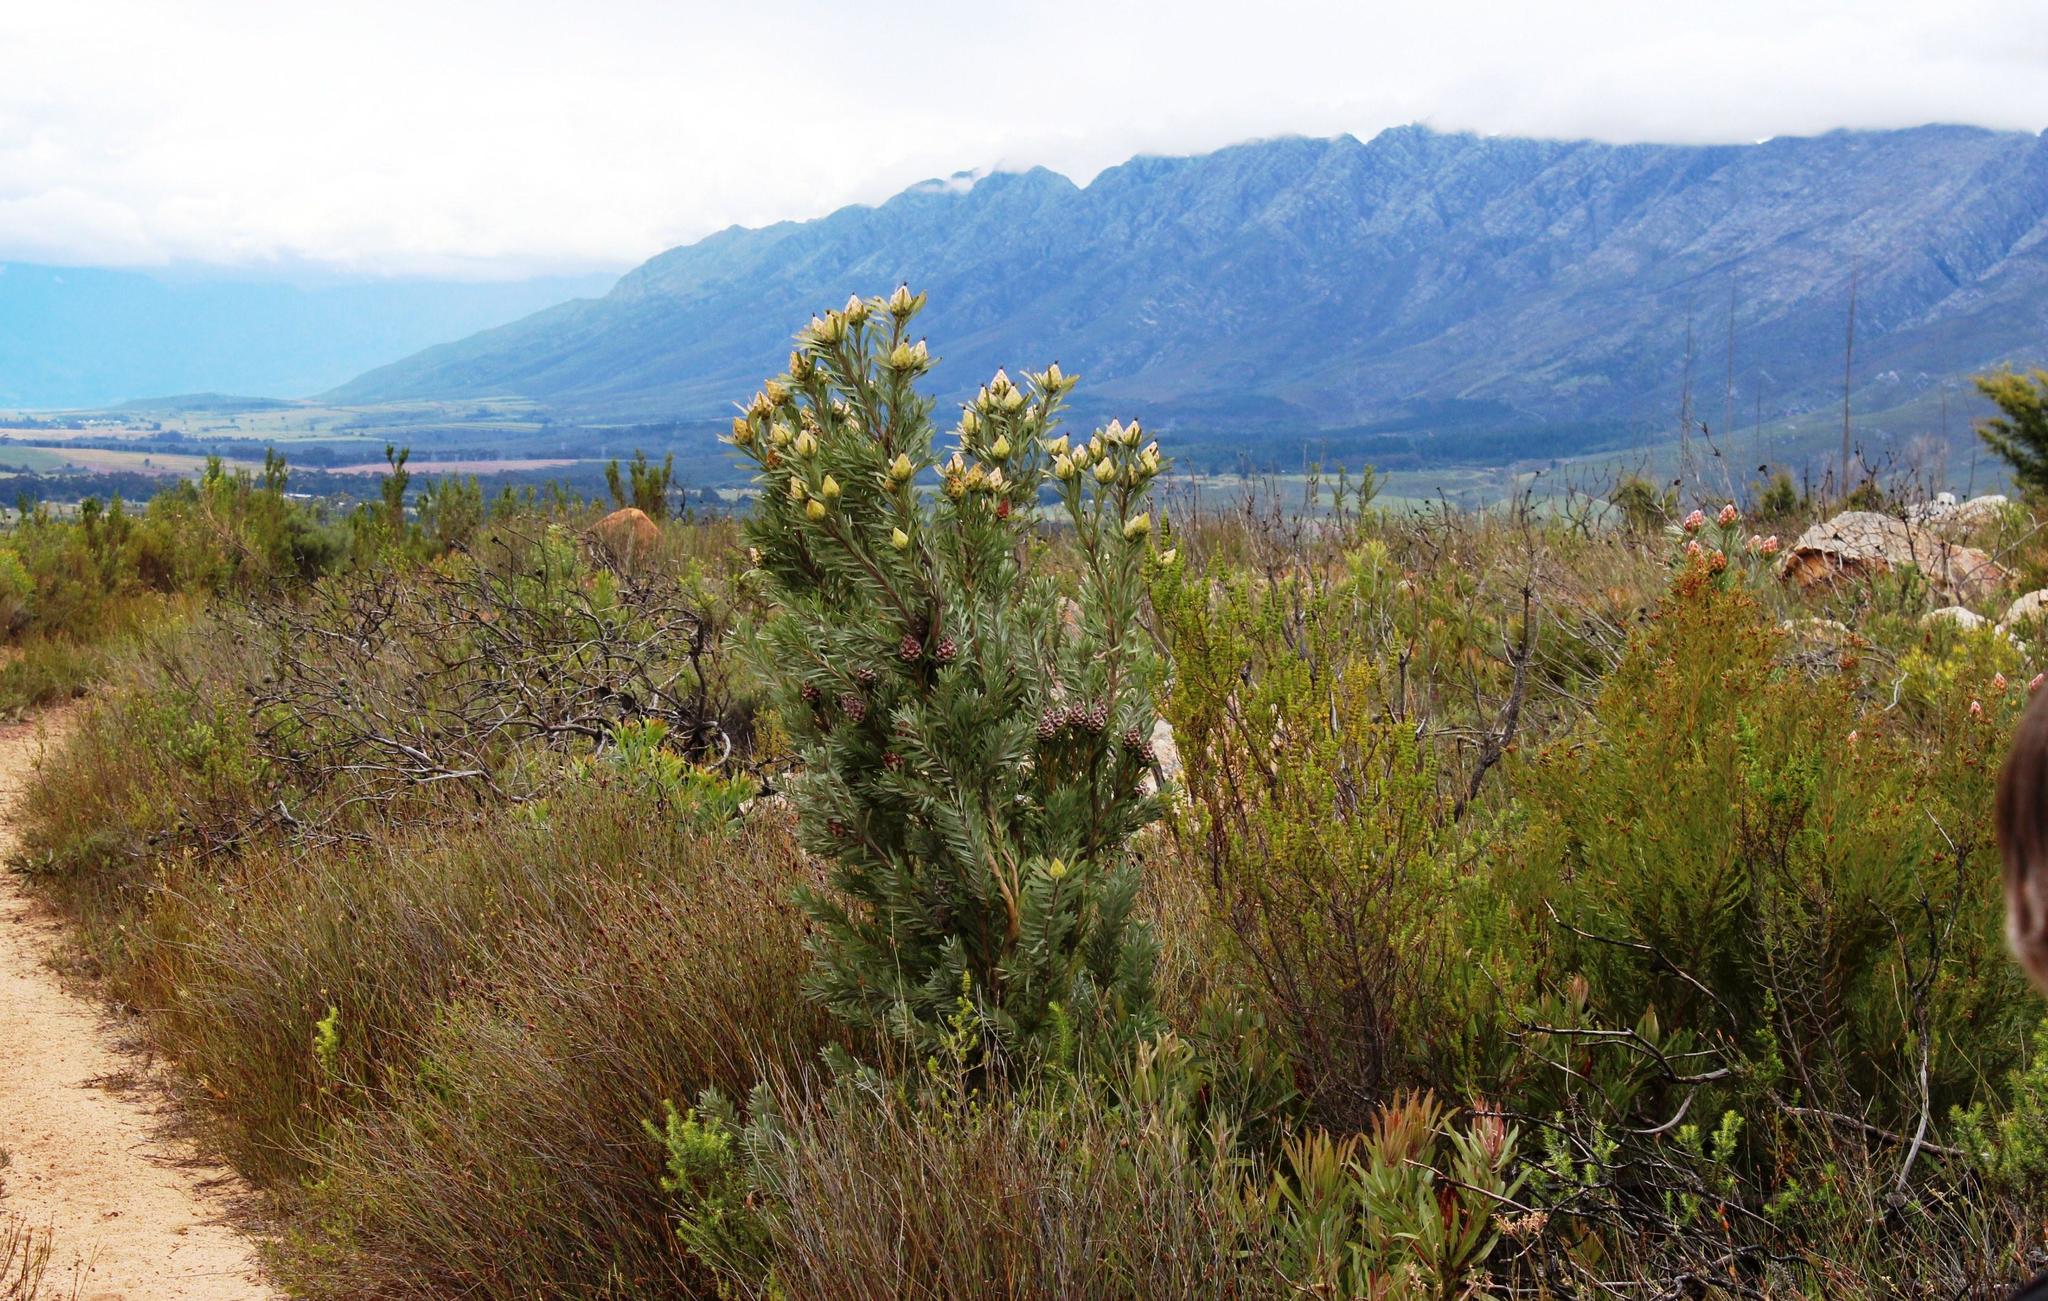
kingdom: Plantae
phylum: Tracheophyta
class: Magnoliopsida
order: Proteales
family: Proteaceae
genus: Leucadendron
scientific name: Leucadendron rubrum
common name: Spinning top
